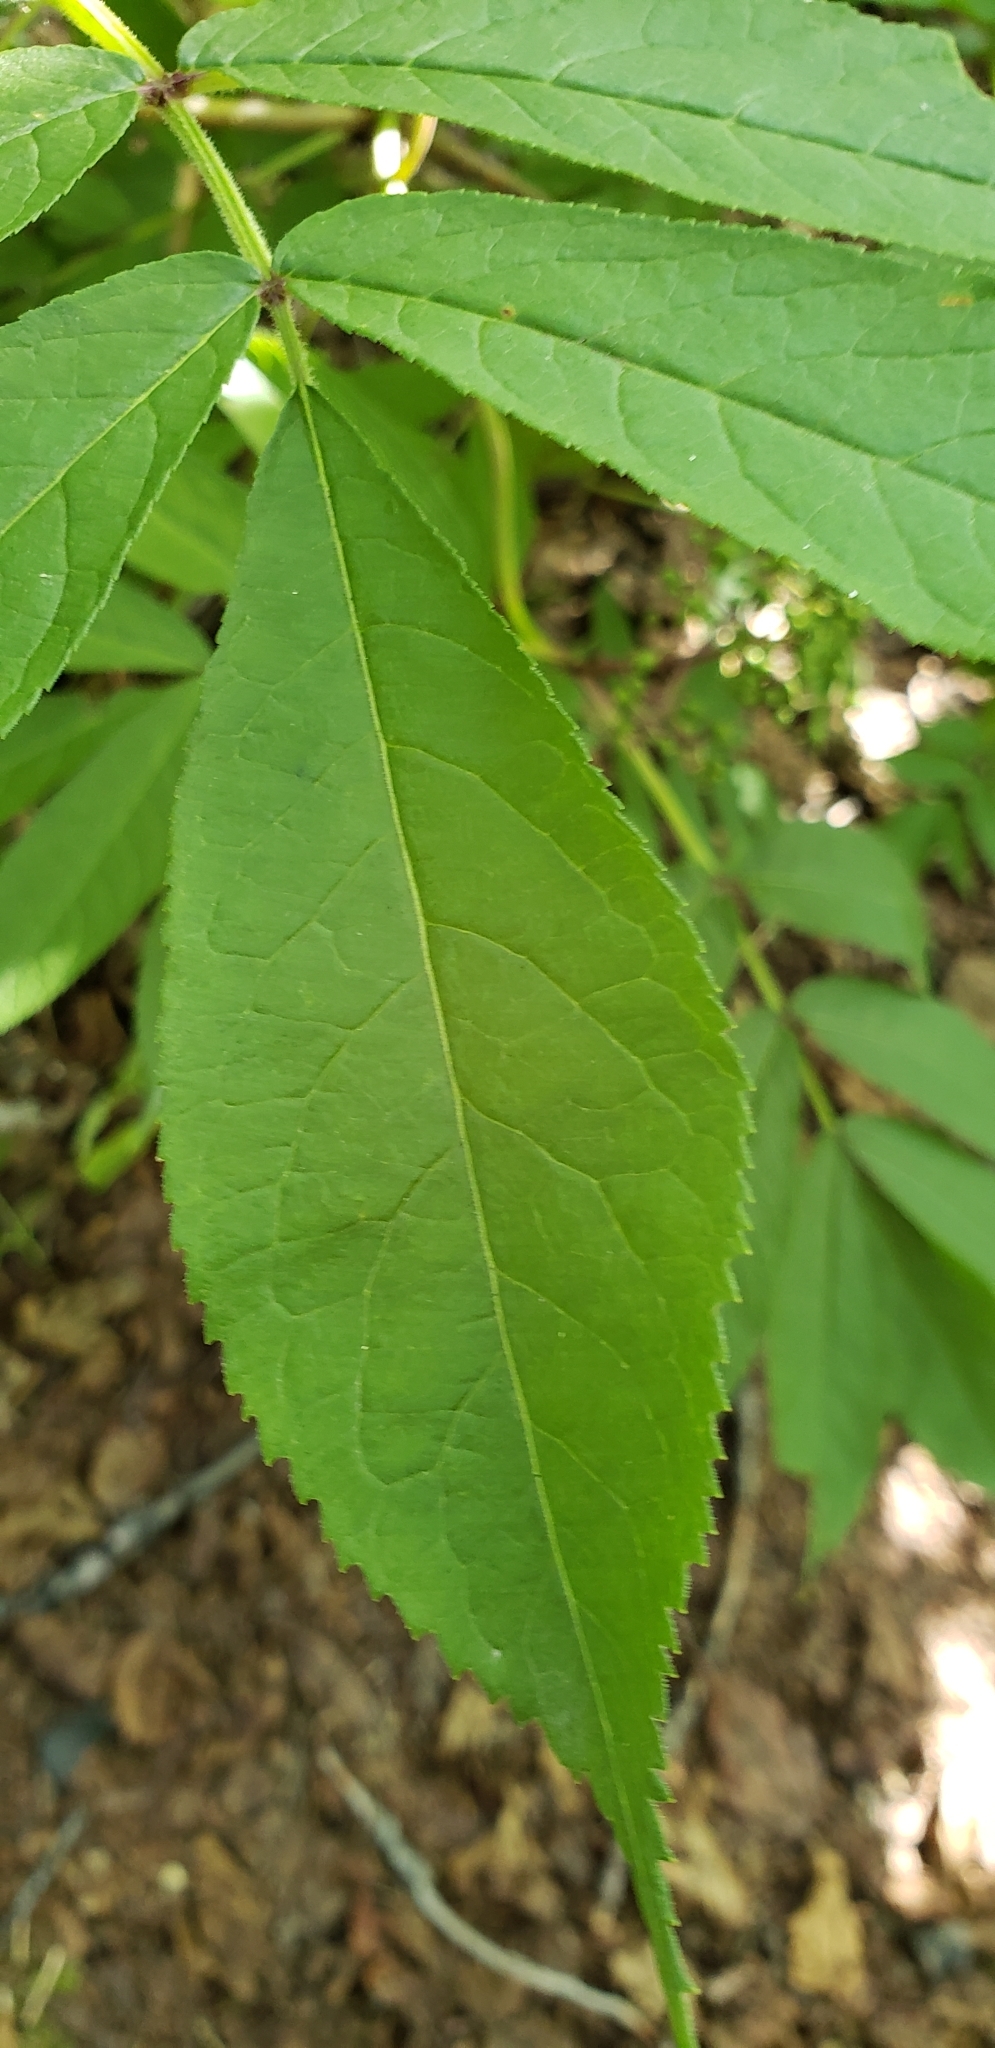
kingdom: Plantae
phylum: Tracheophyta
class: Magnoliopsida
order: Dipsacales
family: Viburnaceae
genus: Sambucus
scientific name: Sambucus racemosa
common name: Red-berried elder
